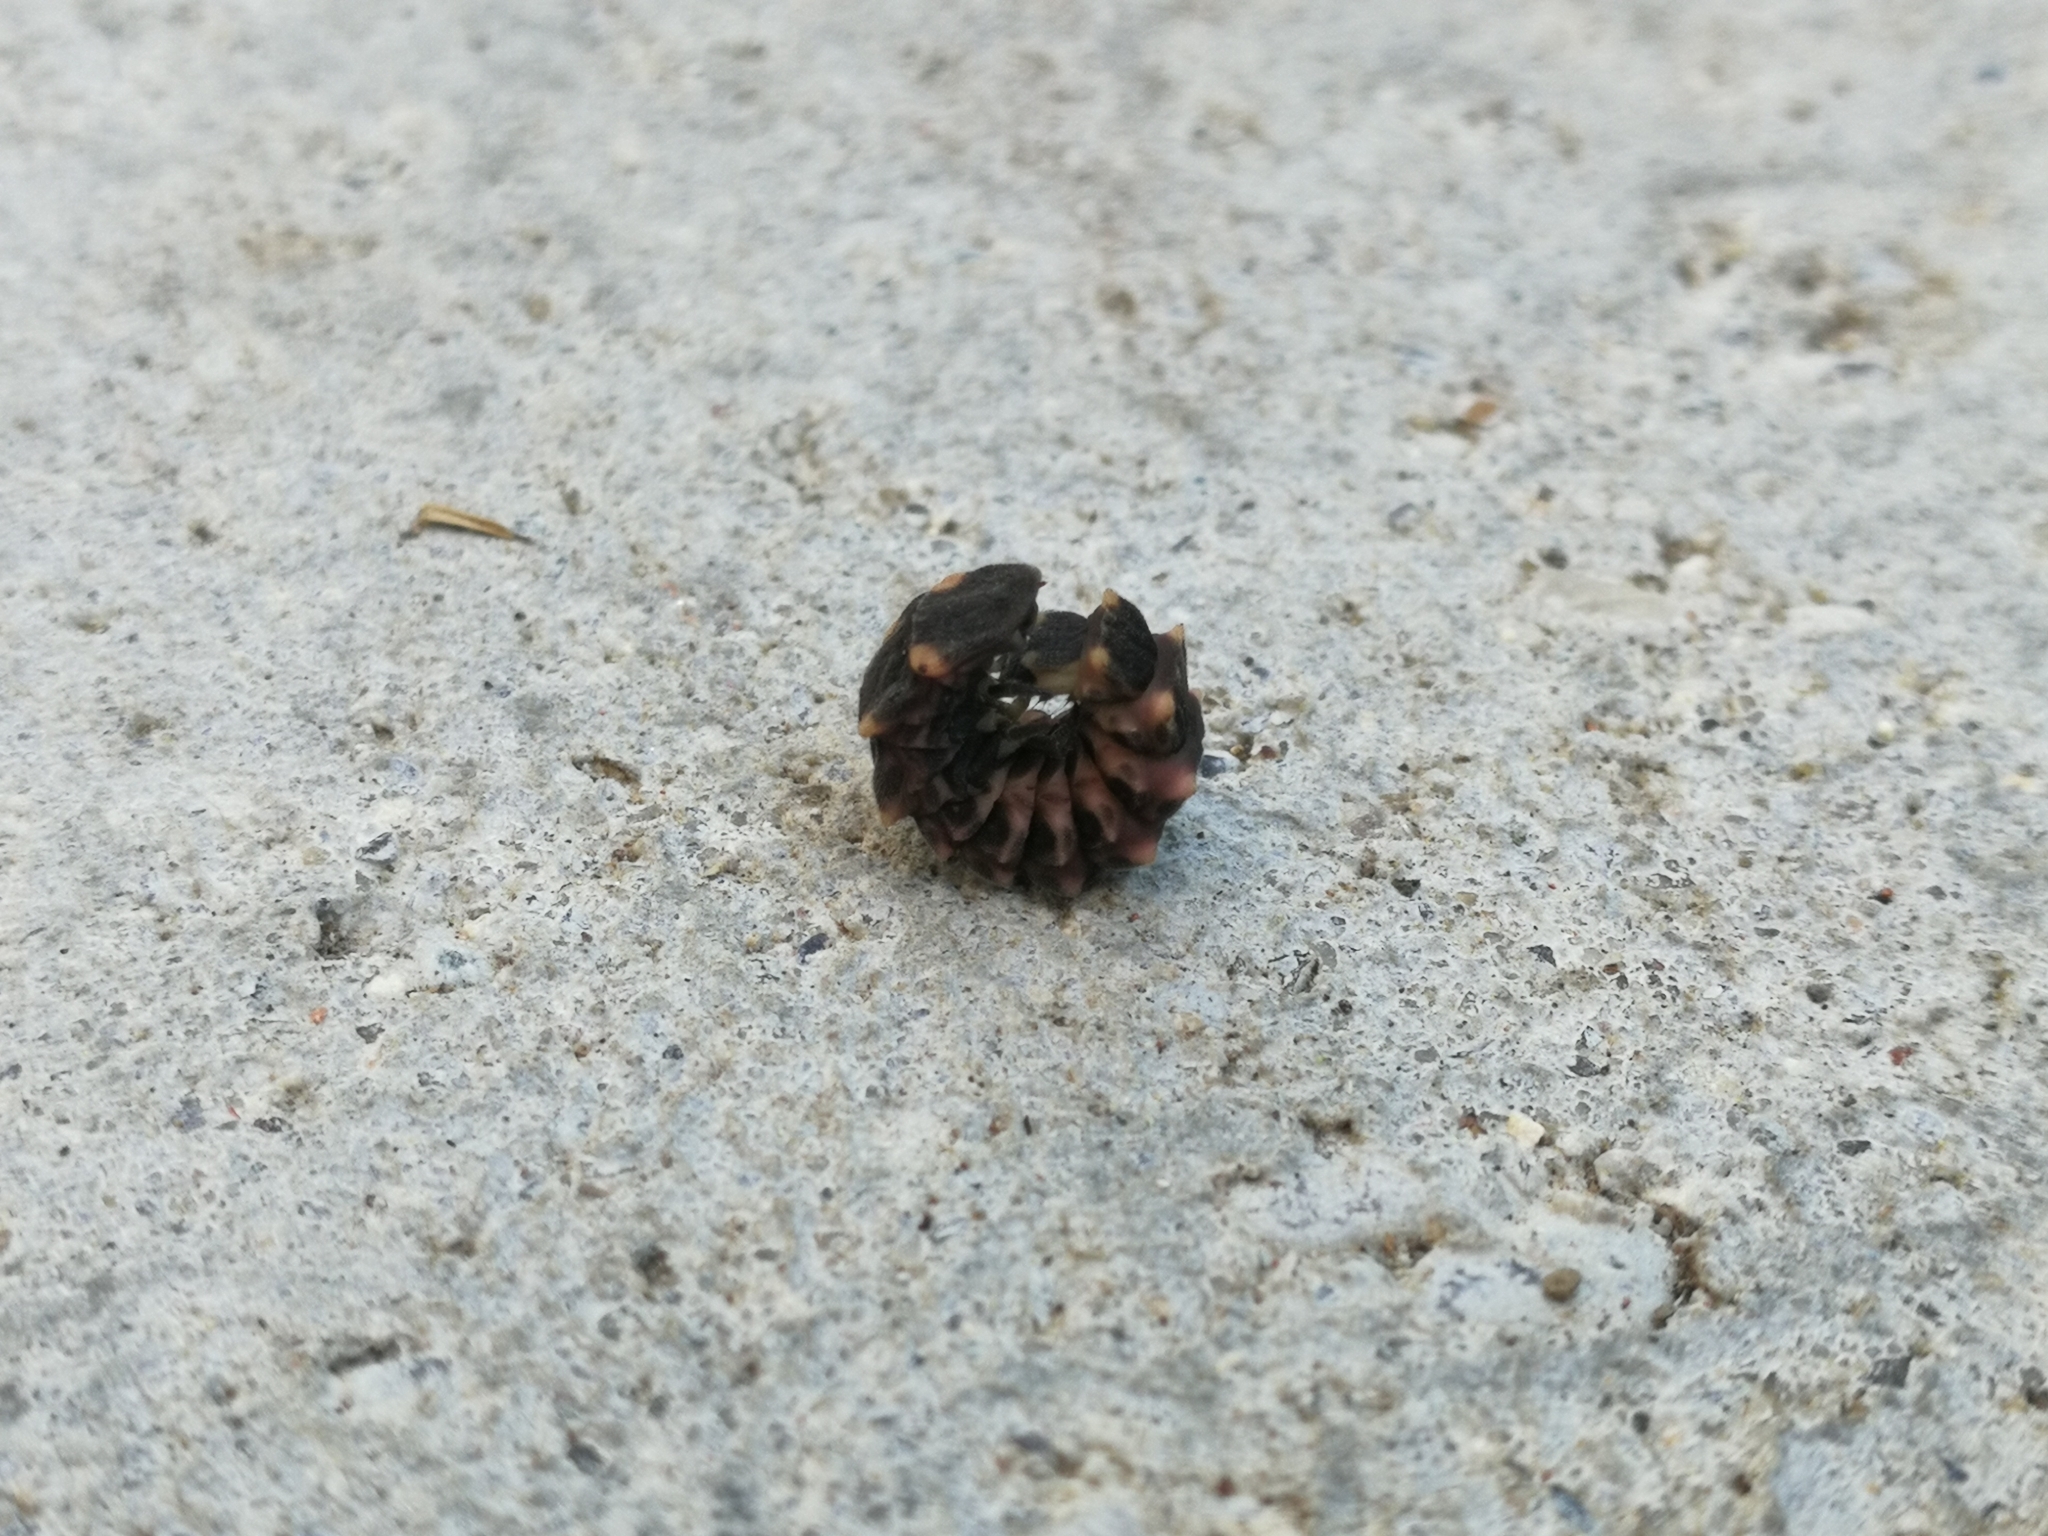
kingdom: Animalia
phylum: Arthropoda
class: Insecta
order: Coleoptera
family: Lampyridae
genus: Lampyris
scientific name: Lampyris noctiluca
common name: Glow-worm
